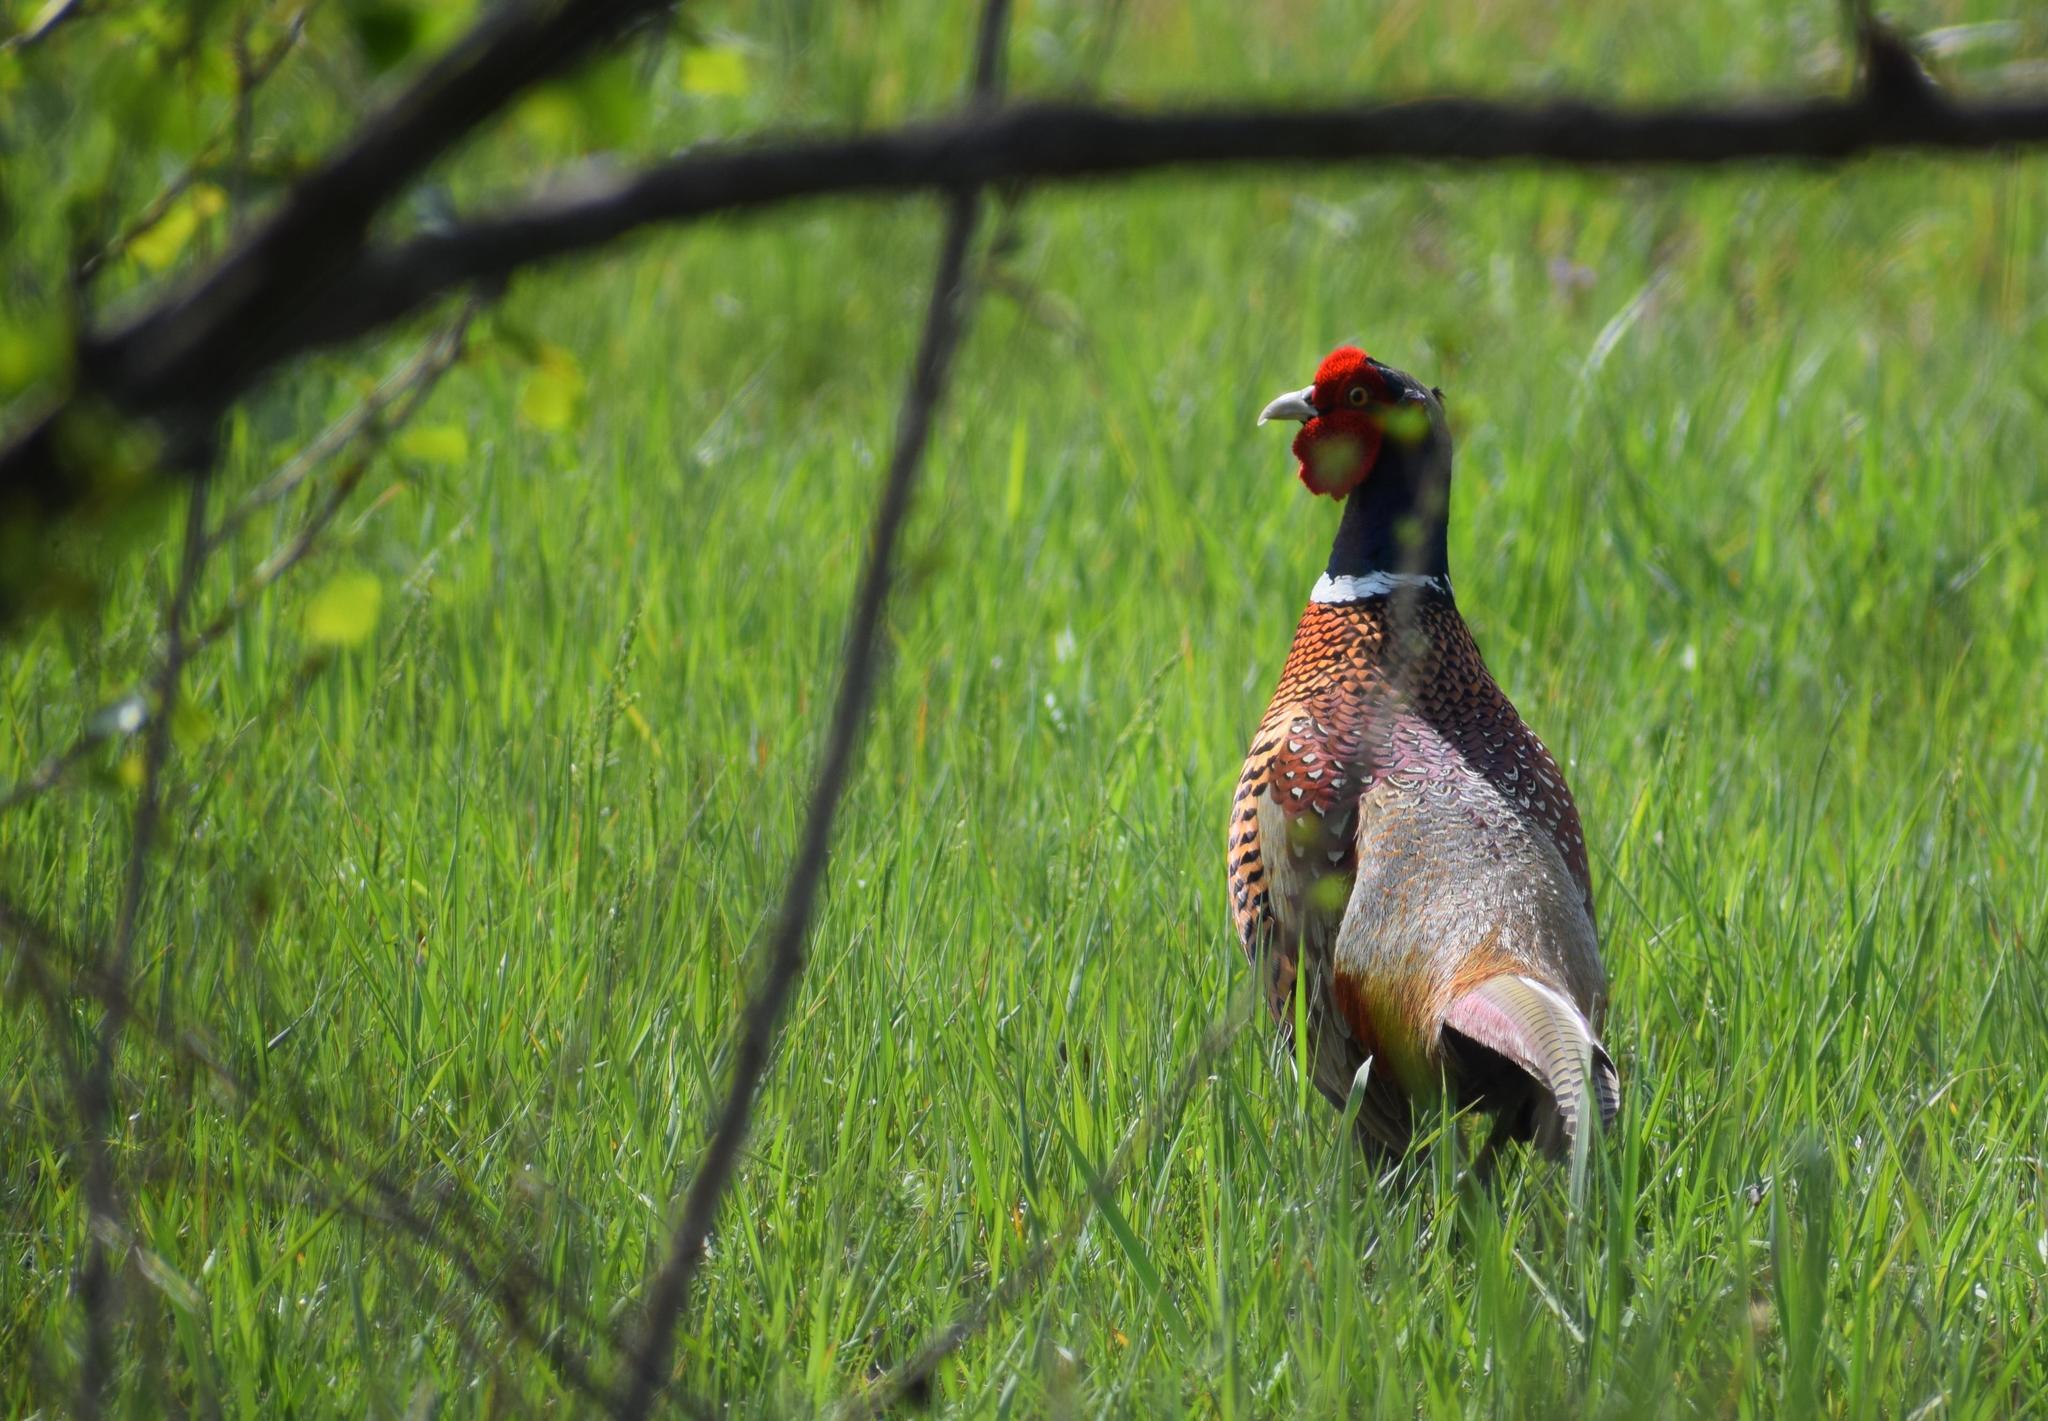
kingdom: Animalia
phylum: Chordata
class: Aves
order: Galliformes
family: Phasianidae
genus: Phasianus
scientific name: Phasianus colchicus
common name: Common pheasant
